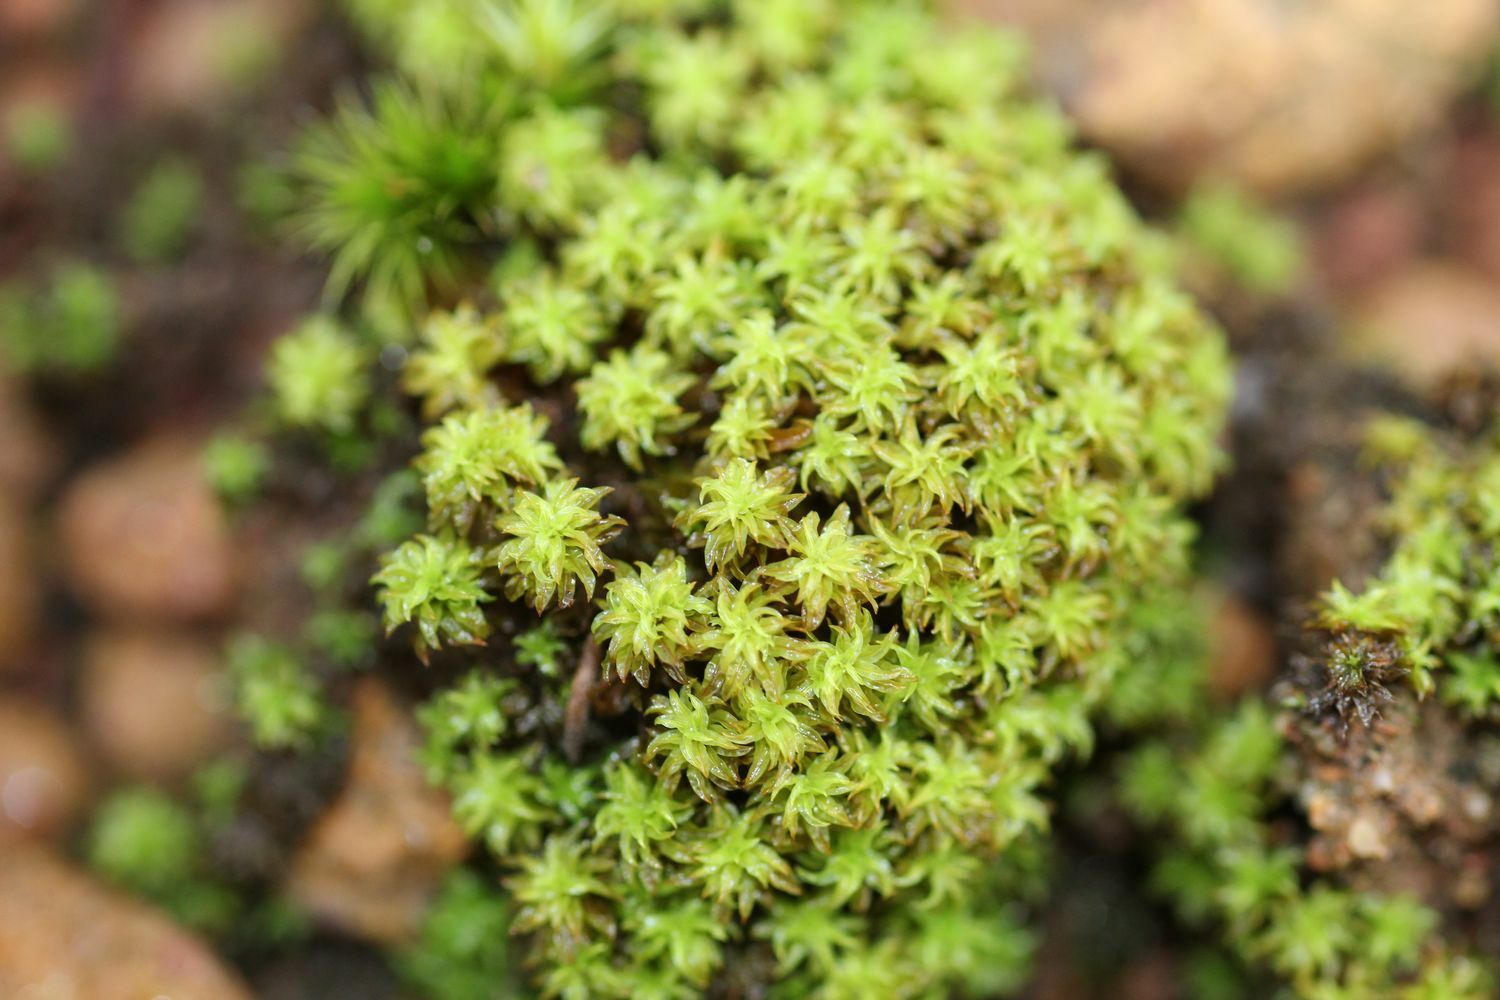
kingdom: Plantae
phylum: Bryophyta
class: Bryopsida
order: Pottiales
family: Pottiaceae
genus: Triquetrella
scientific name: Triquetrella paradoxa
